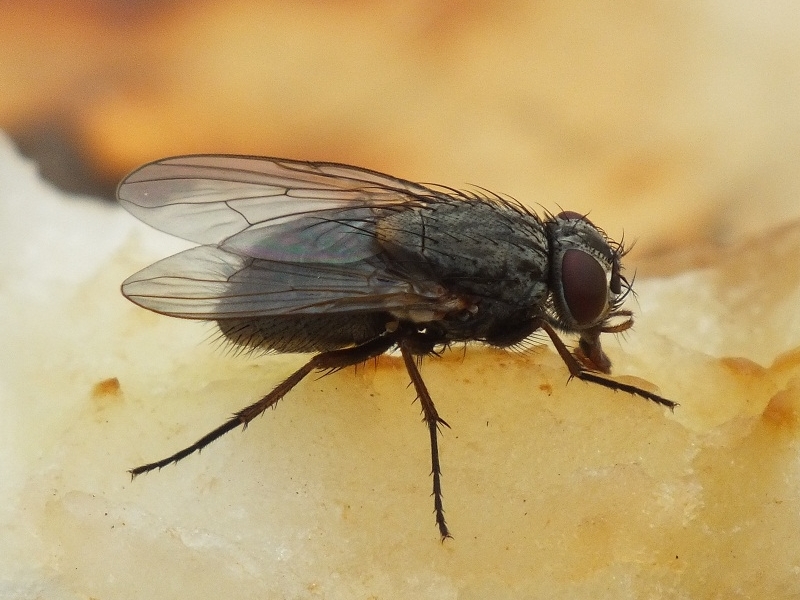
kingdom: Animalia
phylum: Arthropoda
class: Insecta
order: Diptera
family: Muscidae
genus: Muscina
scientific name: Muscina stabulans
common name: False stable fly
